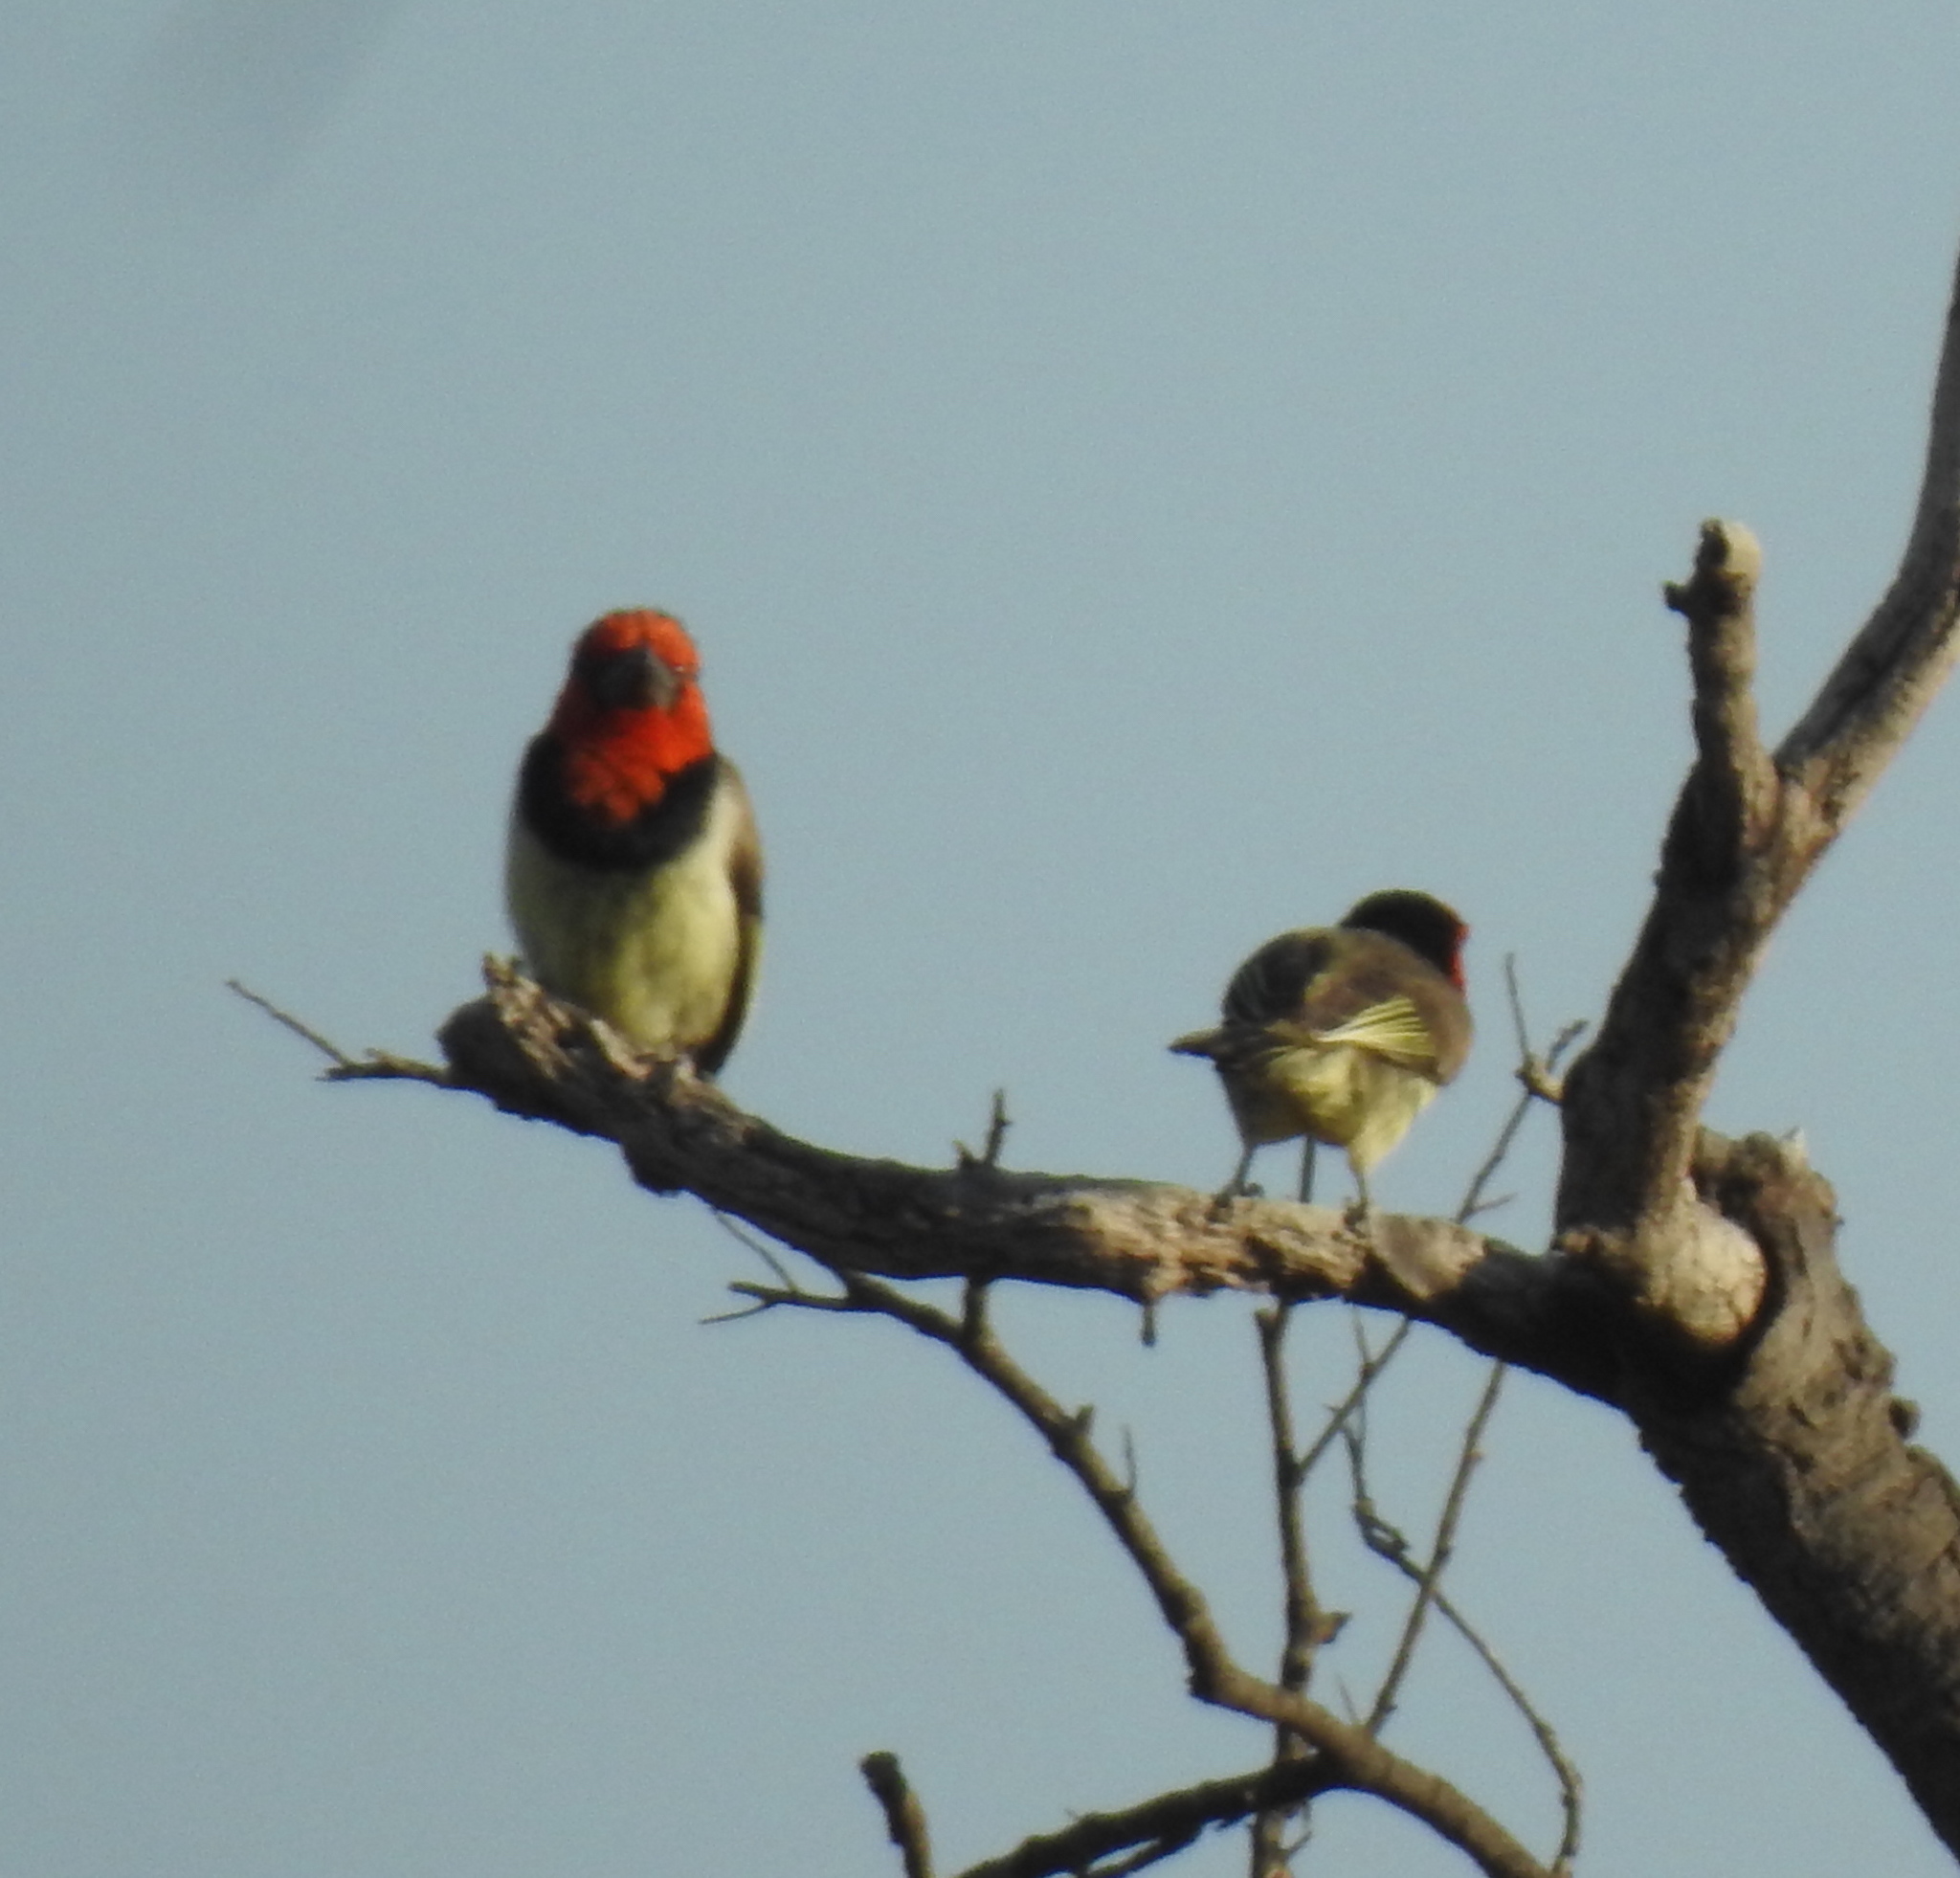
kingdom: Animalia
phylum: Chordata
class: Aves
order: Piciformes
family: Lybiidae
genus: Lybius
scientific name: Lybius torquatus
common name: Black-collared barbet
